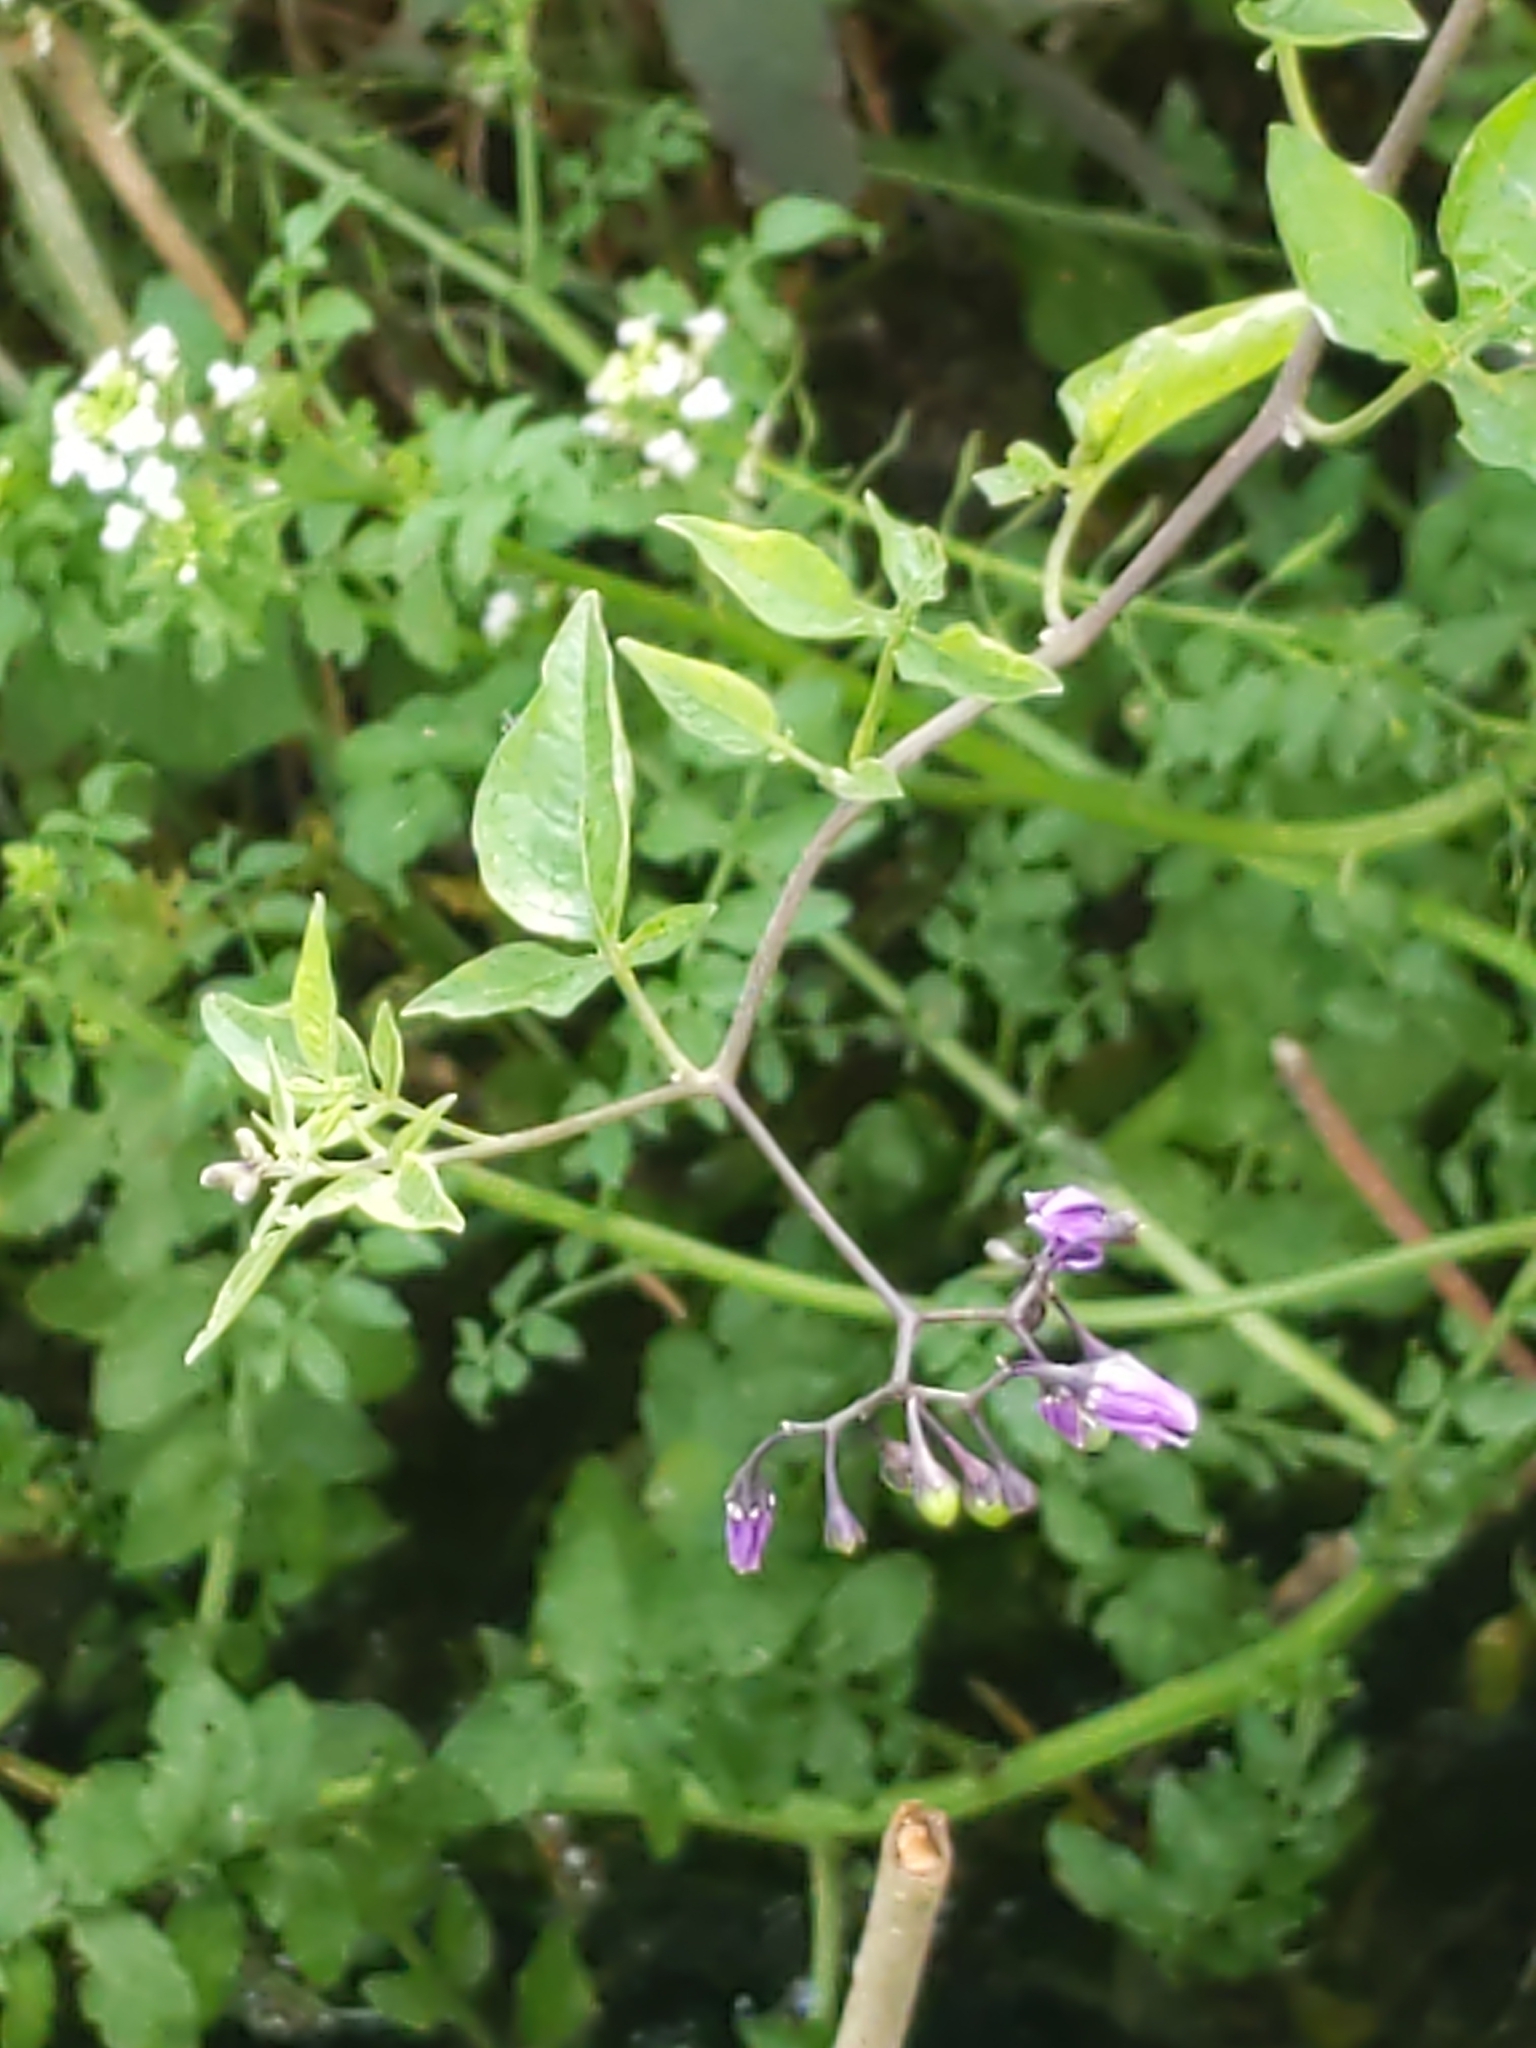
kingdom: Plantae
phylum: Tracheophyta
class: Magnoliopsida
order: Solanales
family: Solanaceae
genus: Solanum
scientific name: Solanum dulcamara
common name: Climbing nightshade
